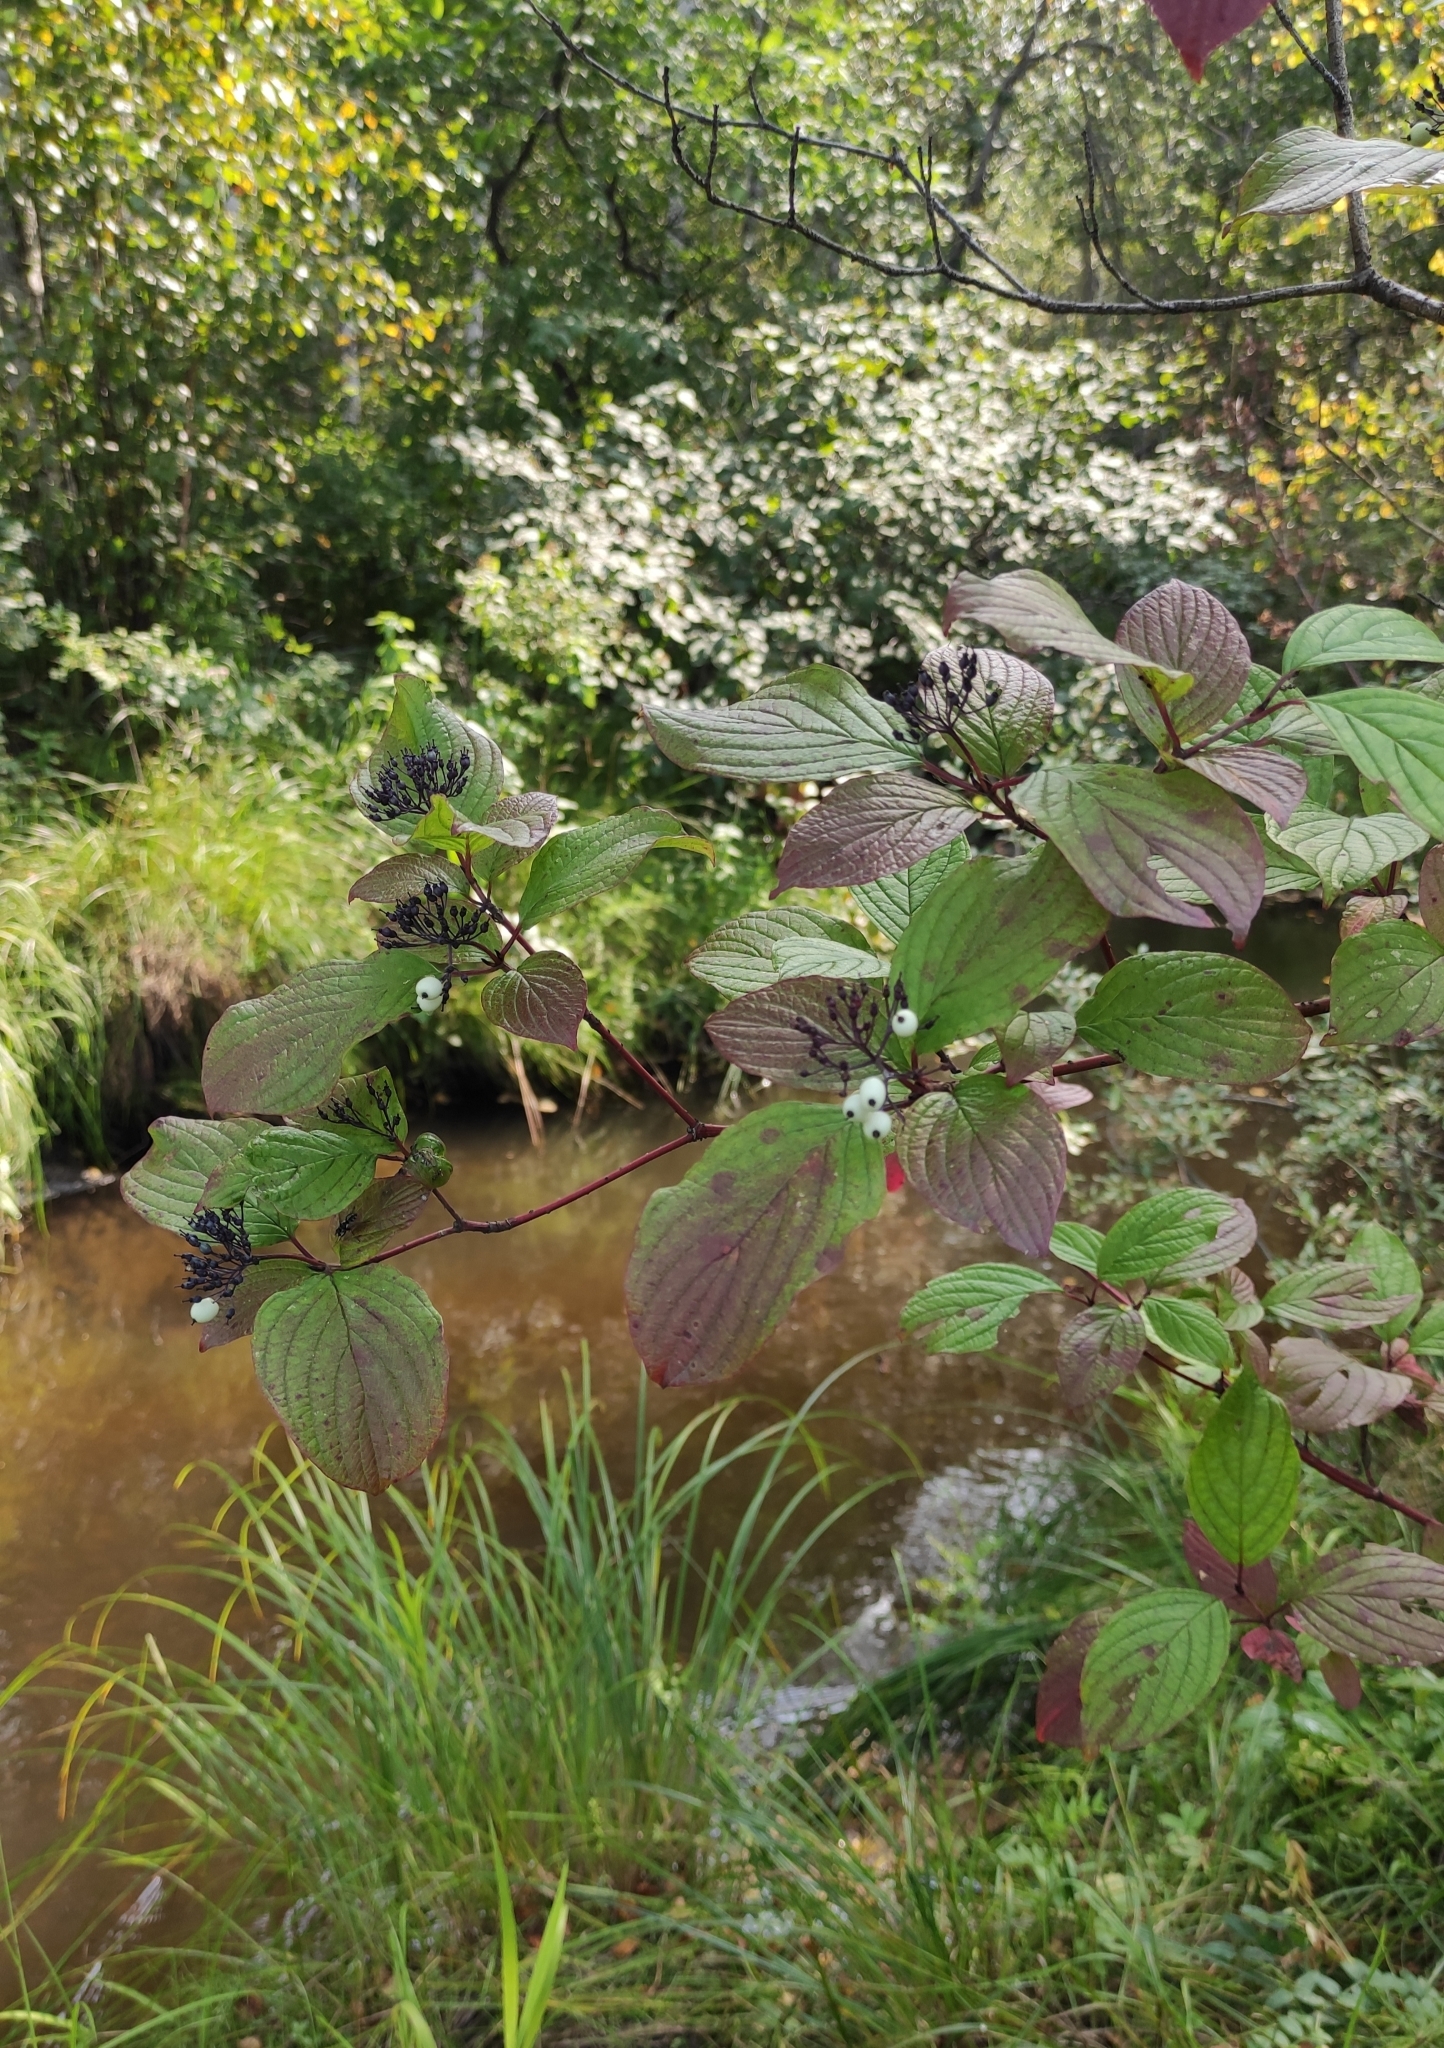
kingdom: Plantae
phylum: Tracheophyta
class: Magnoliopsida
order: Cornales
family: Cornaceae
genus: Cornus
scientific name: Cornus alba
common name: White dogwood
